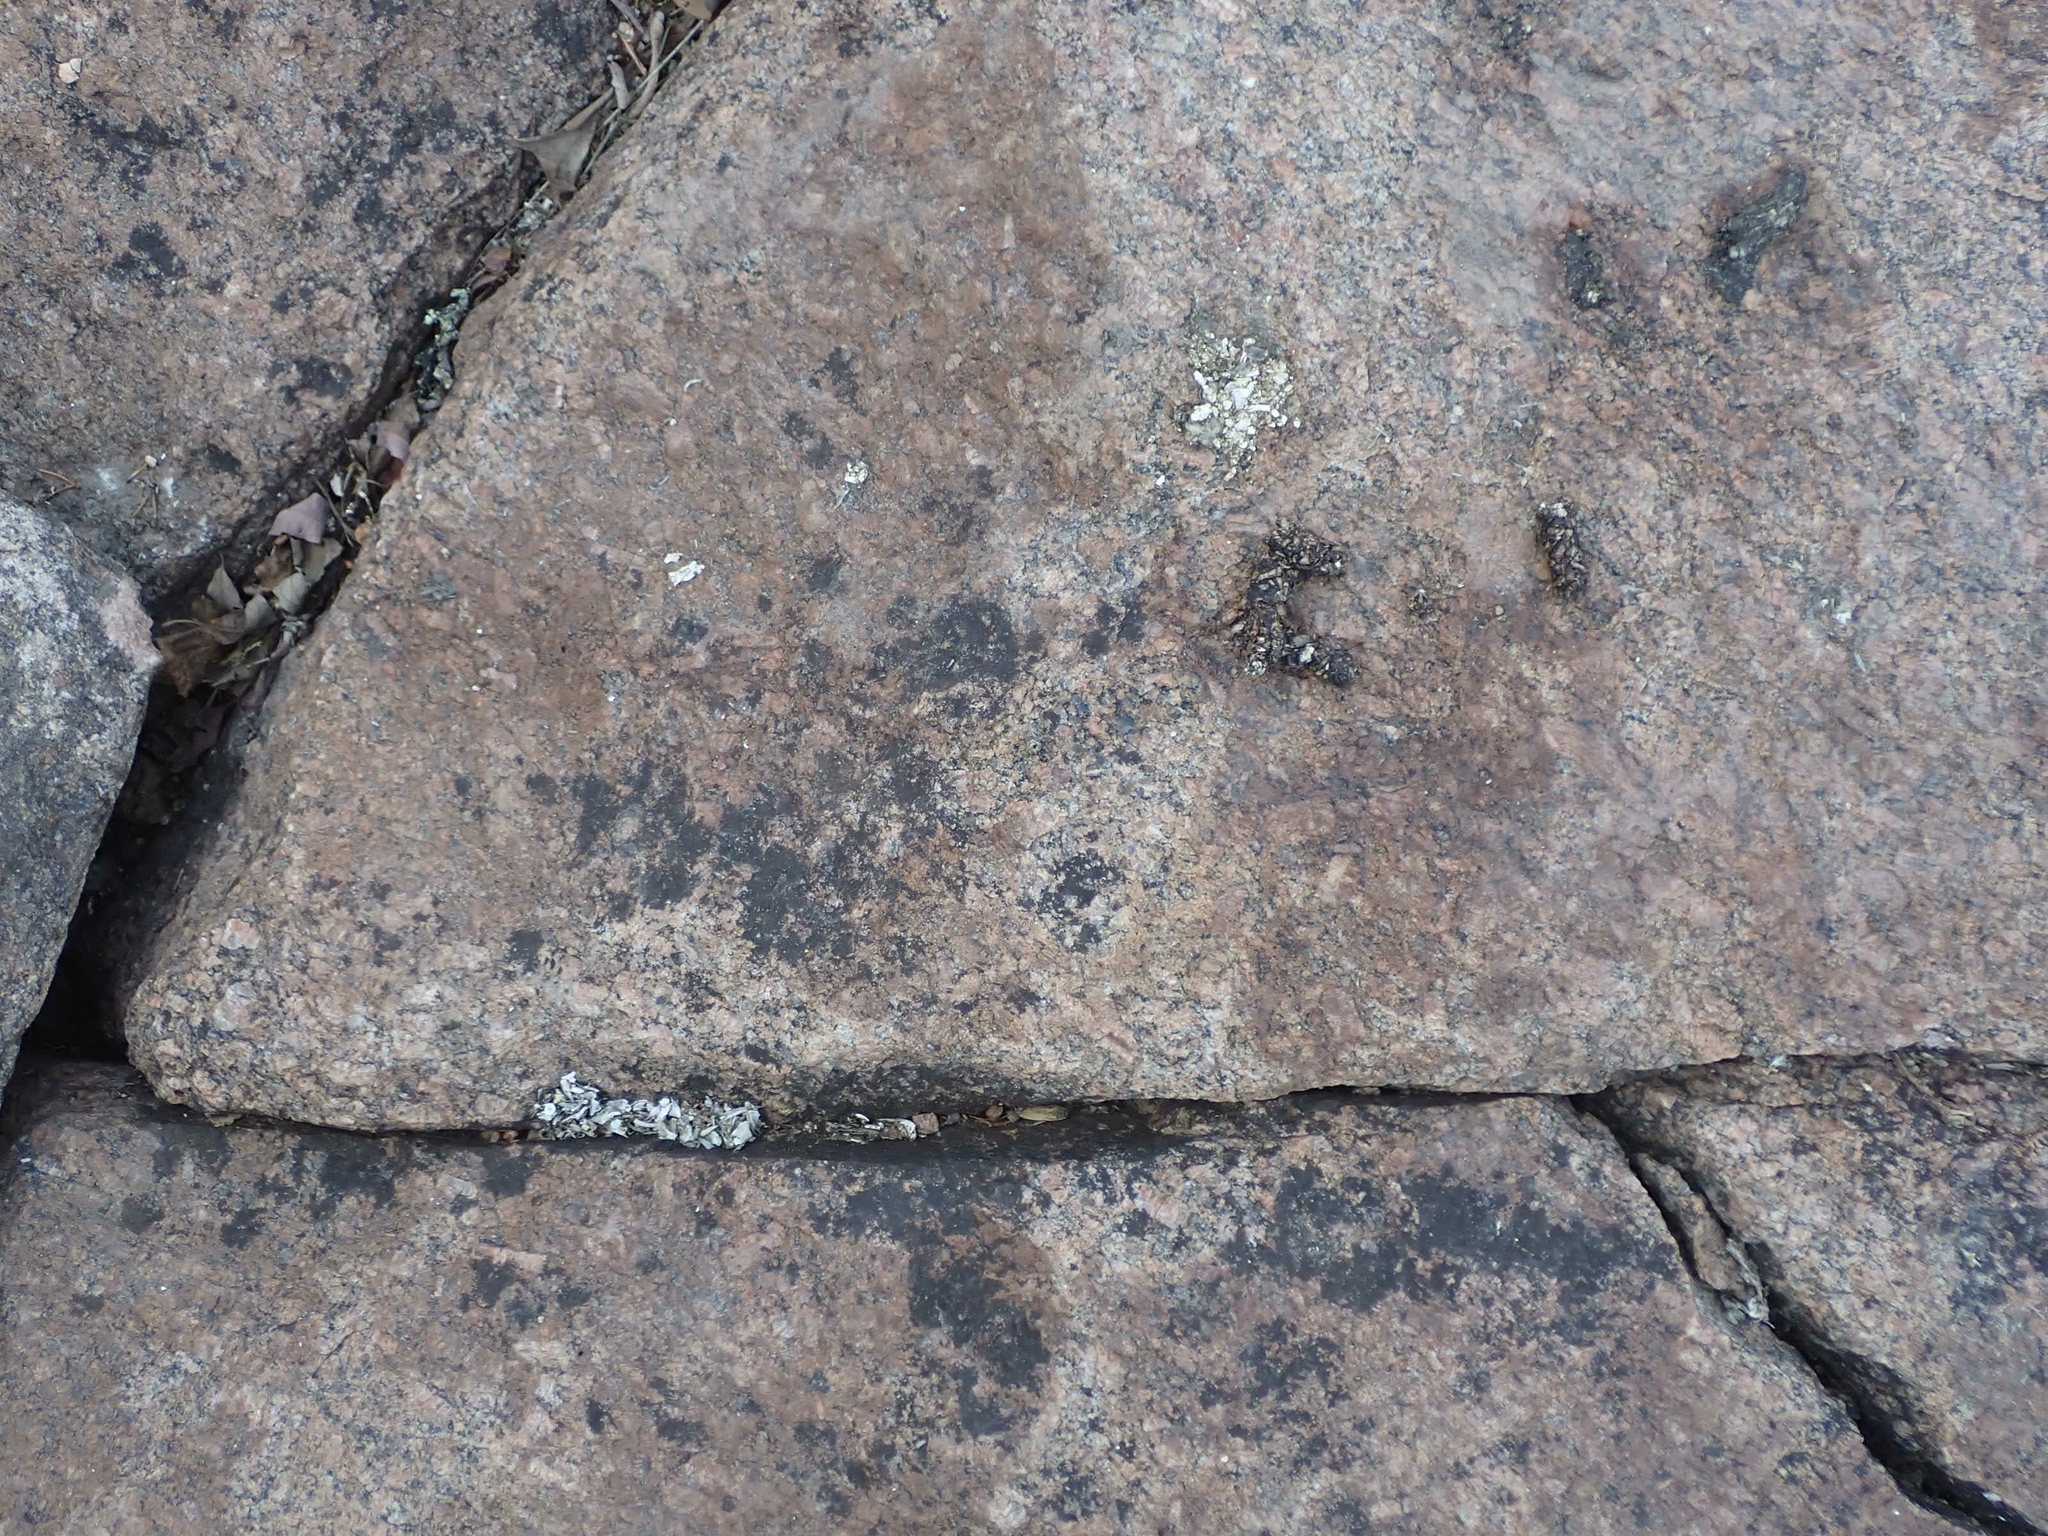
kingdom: Animalia
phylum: Chordata
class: Mammalia
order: Carnivora
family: Mustelidae
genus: Lontra
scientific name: Lontra canadensis
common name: North american river otter
